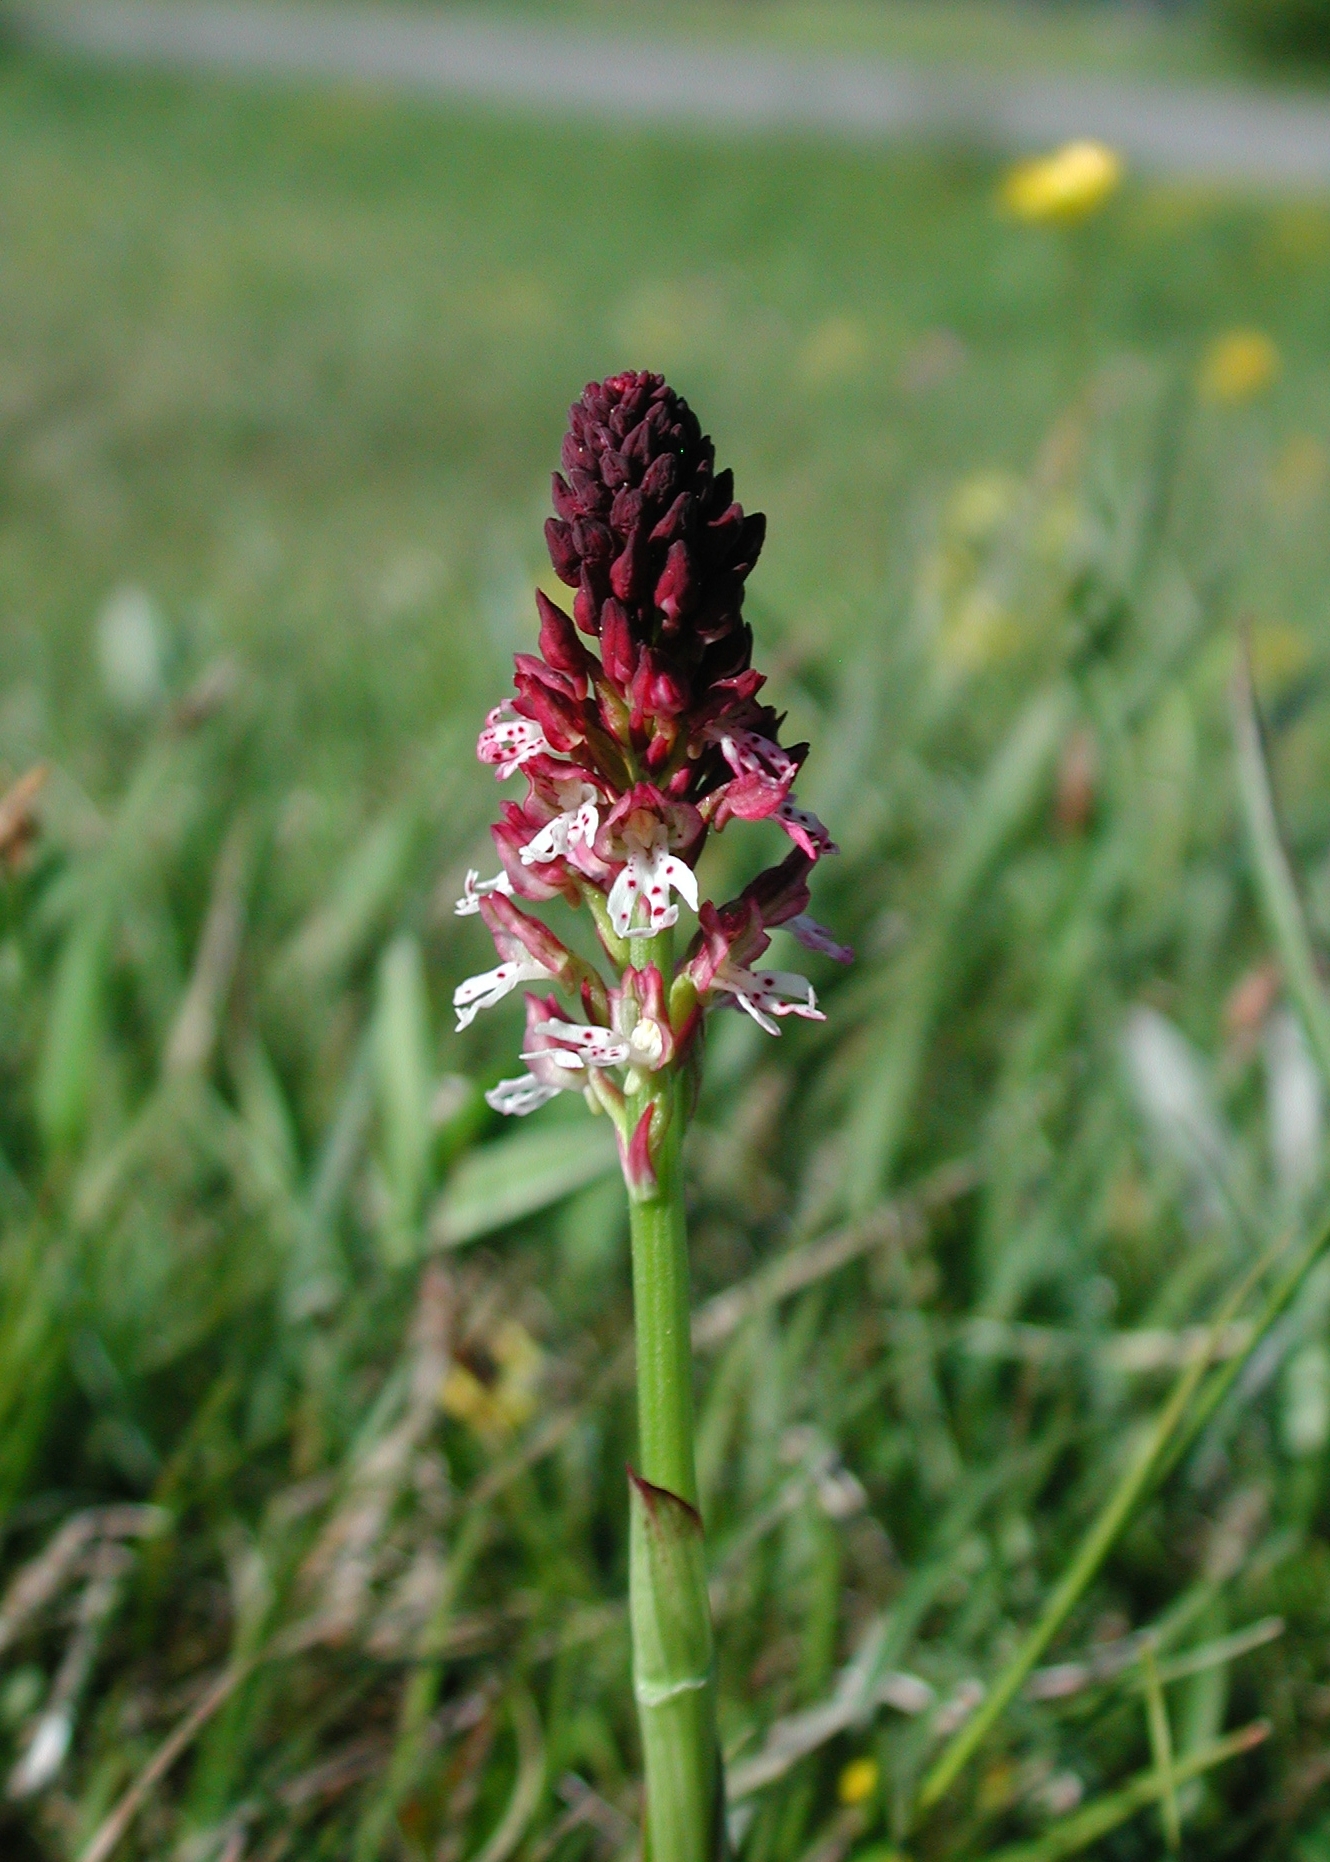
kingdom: Plantae
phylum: Tracheophyta
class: Liliopsida
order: Asparagales
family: Orchidaceae
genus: Neotinea
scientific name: Neotinea ustulata
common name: Burnt orchid
